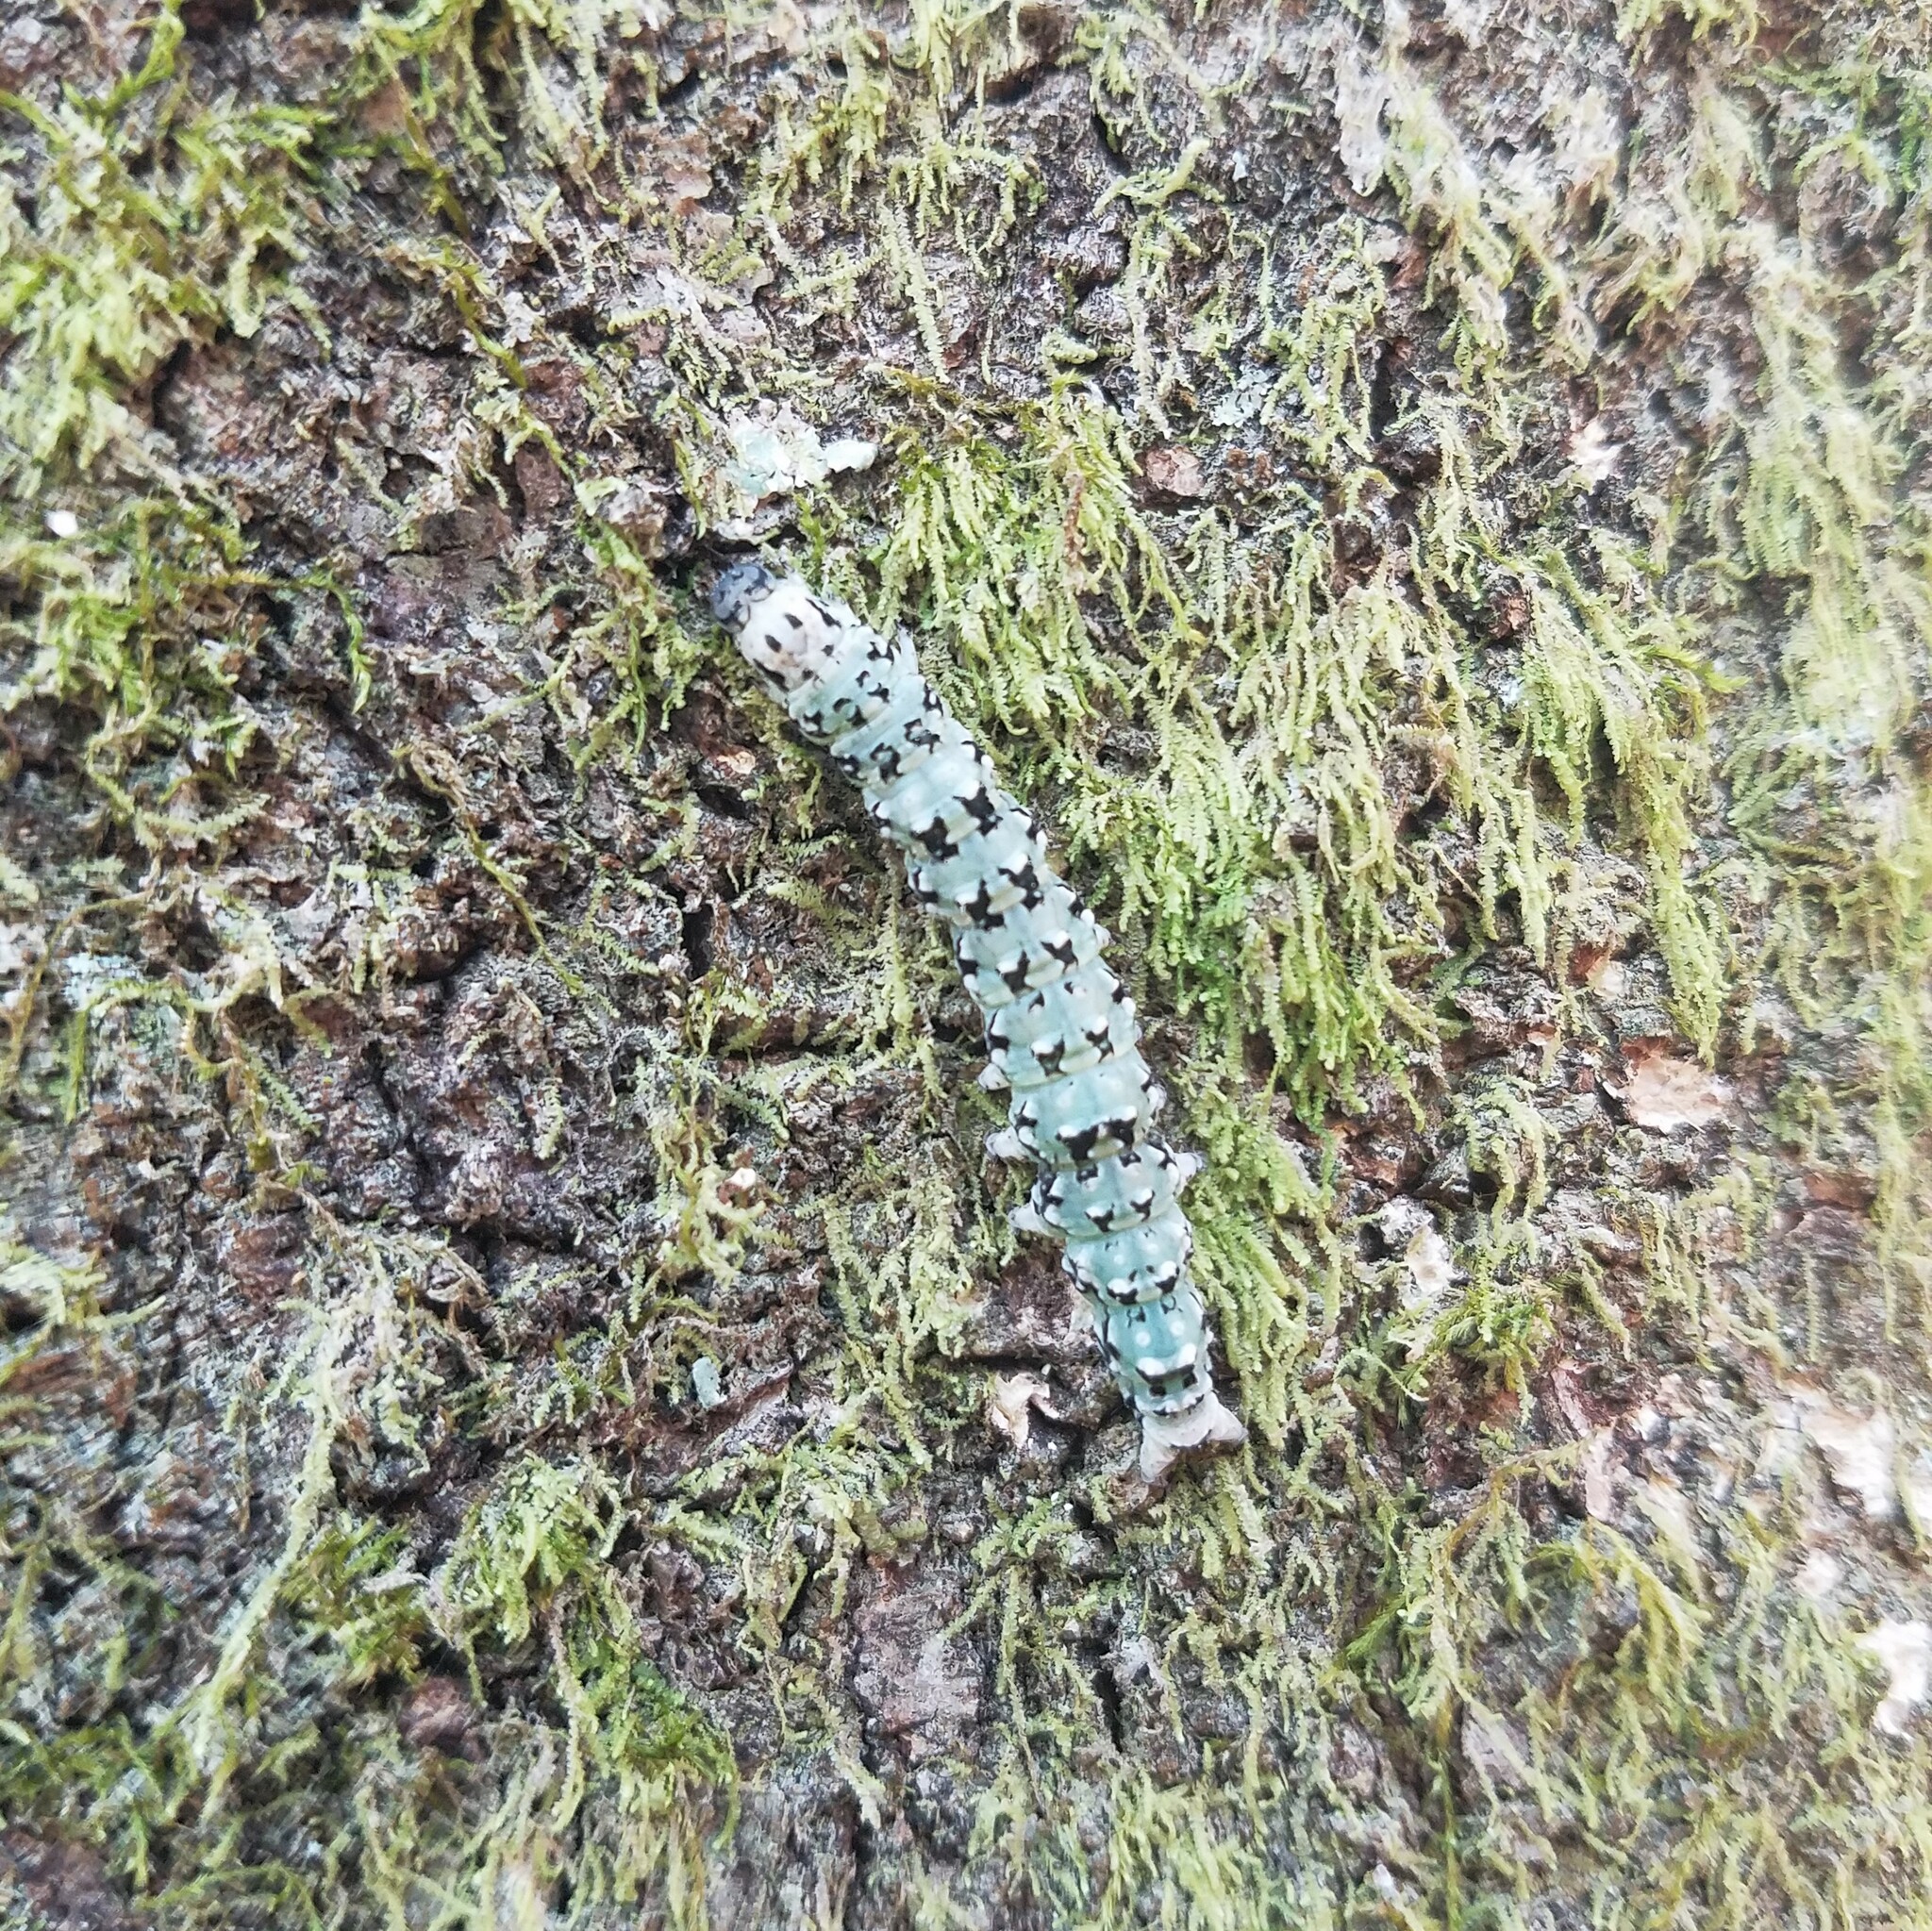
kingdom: Animalia
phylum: Arthropoda
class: Insecta
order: Lepidoptera
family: Erebidae
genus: Catocala
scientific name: Catocala ilia
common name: Ilia underwing
